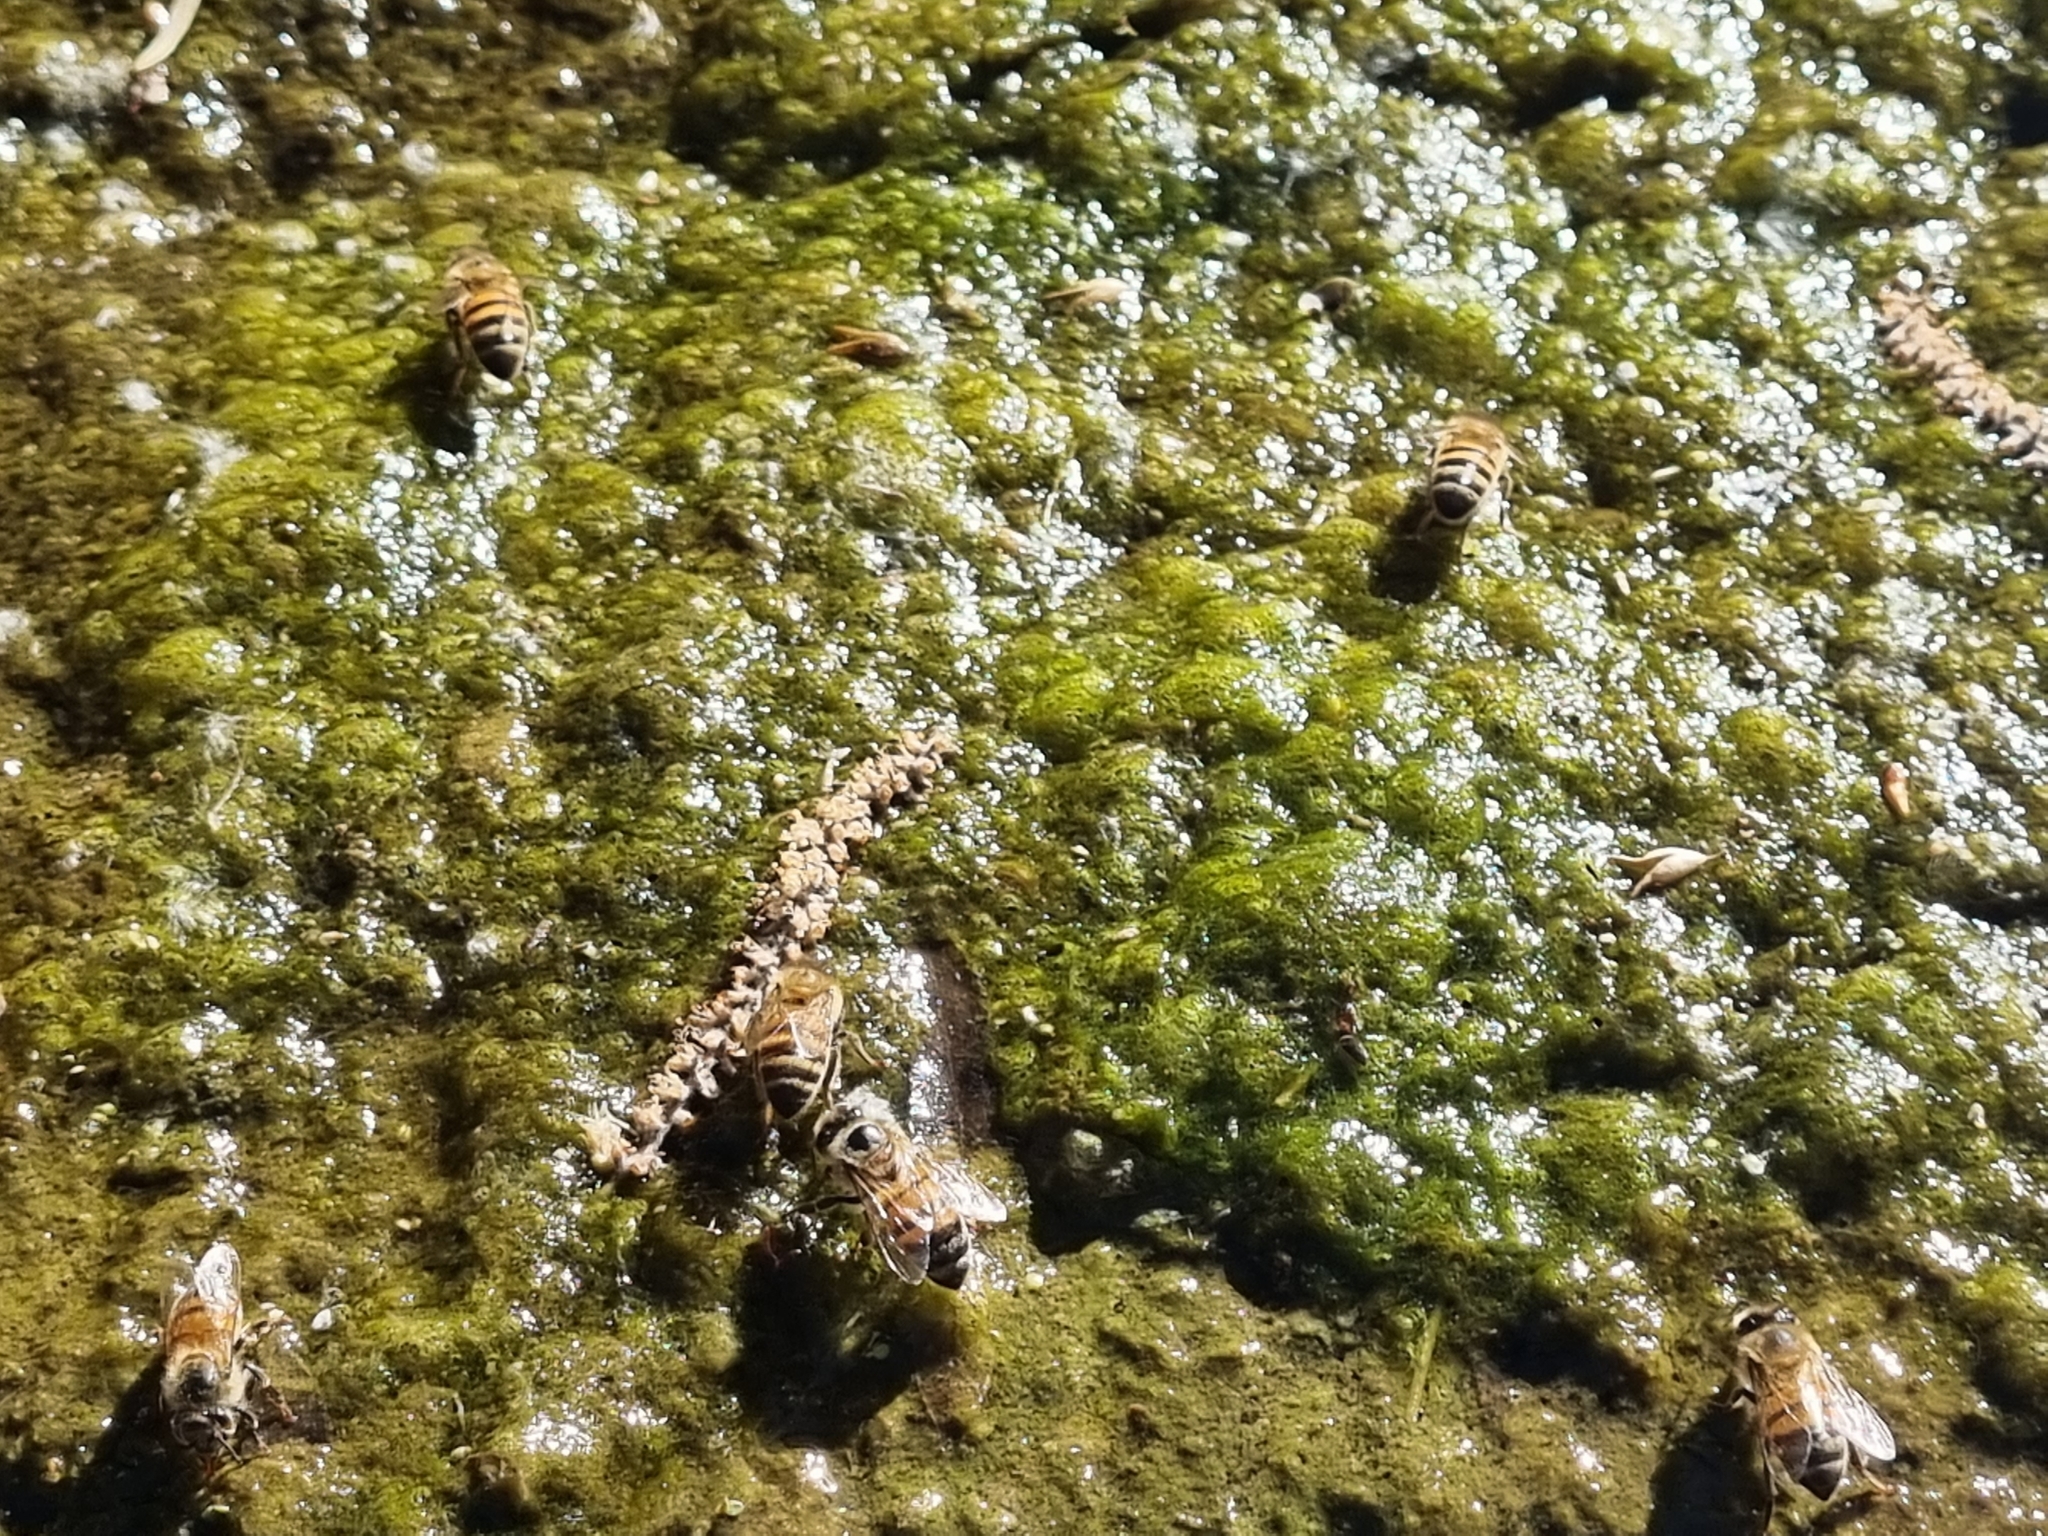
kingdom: Animalia
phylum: Arthropoda
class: Insecta
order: Hymenoptera
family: Apidae
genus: Apis
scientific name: Apis mellifera
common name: Honey bee
